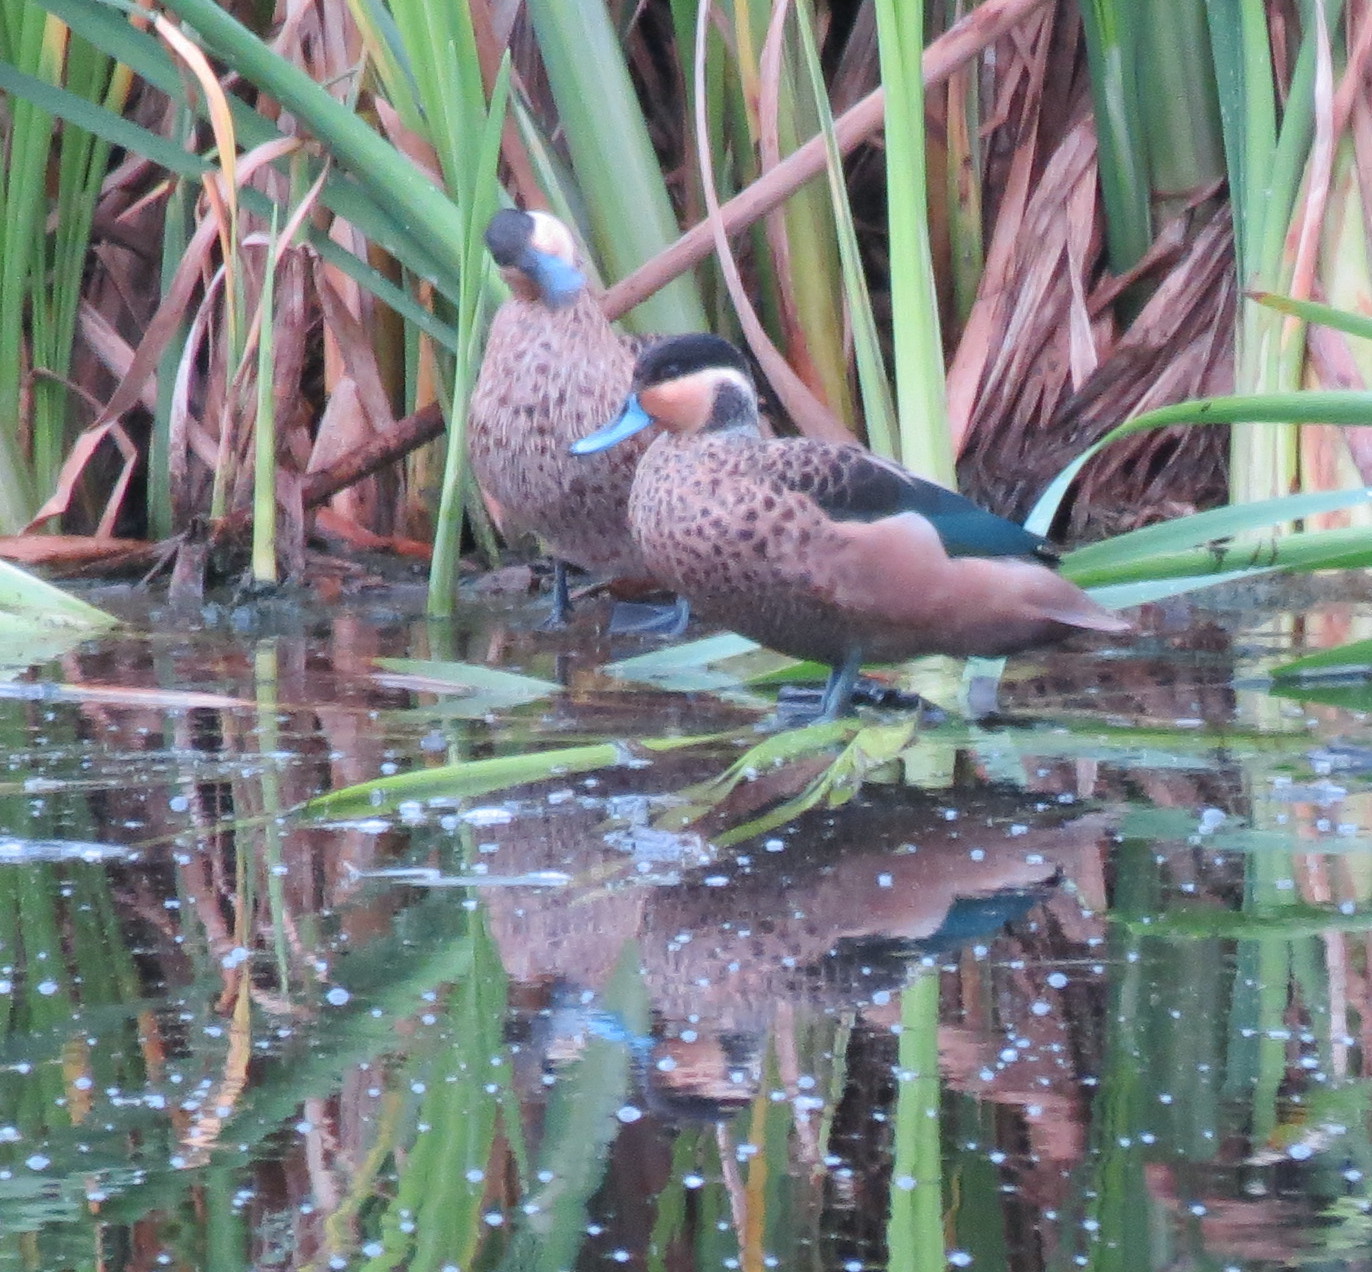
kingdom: Animalia
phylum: Chordata
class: Aves
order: Anseriformes
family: Anatidae
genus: Spatula
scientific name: Spatula hottentota
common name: Blue-billed teal
